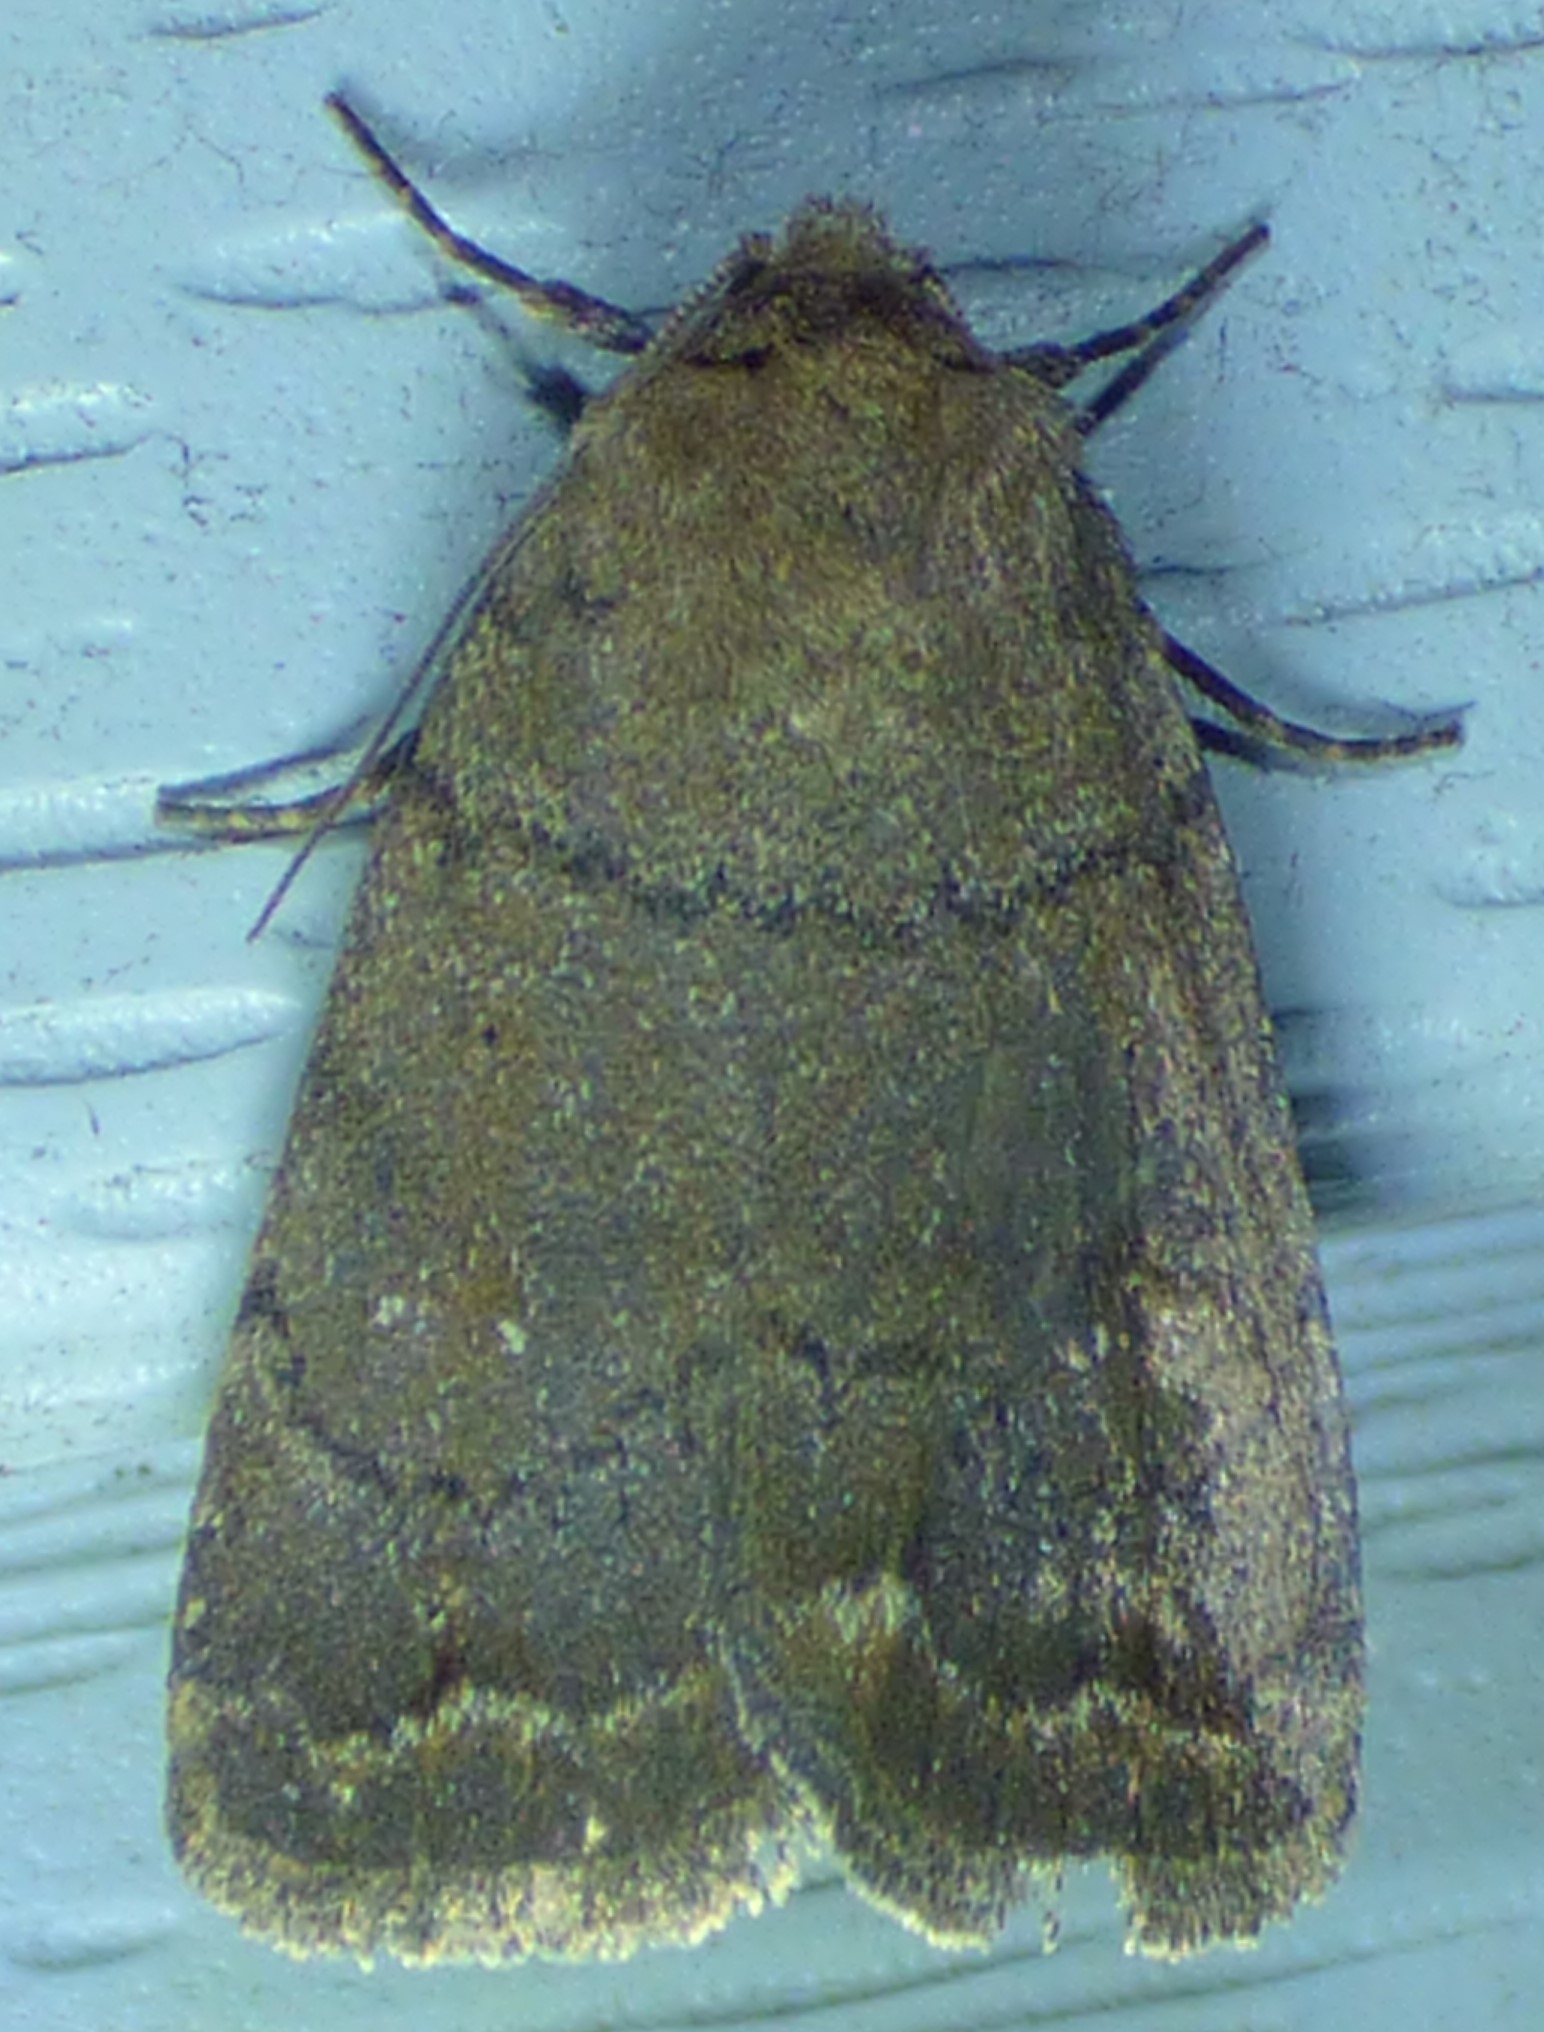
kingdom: Animalia
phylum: Arthropoda
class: Insecta
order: Lepidoptera
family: Noctuidae
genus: Athetis
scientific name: Athetis tarda
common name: Slowpoke moth
